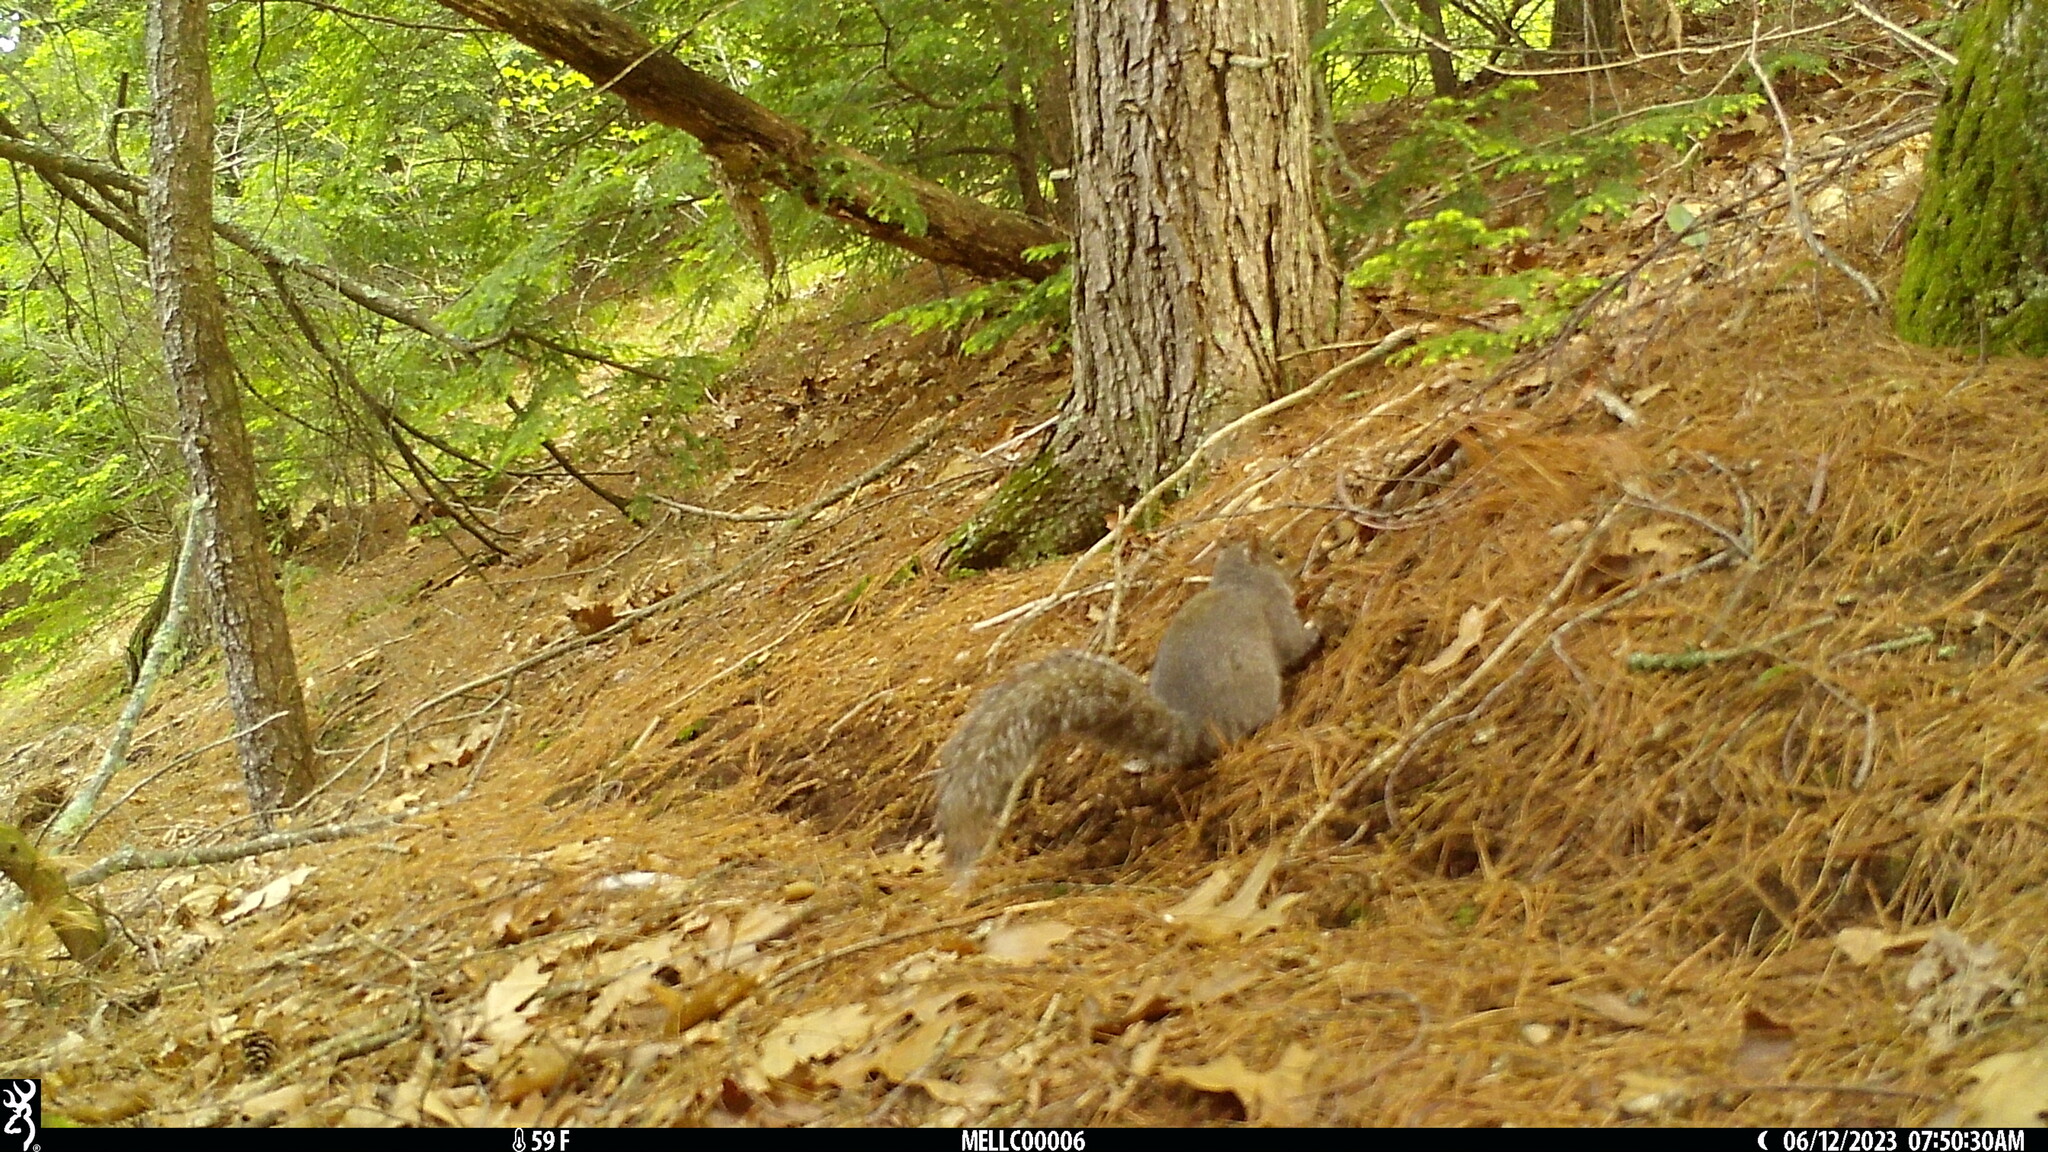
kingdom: Animalia
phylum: Chordata
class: Mammalia
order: Rodentia
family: Sciuridae
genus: Sciurus
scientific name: Sciurus carolinensis
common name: Eastern gray squirrel
